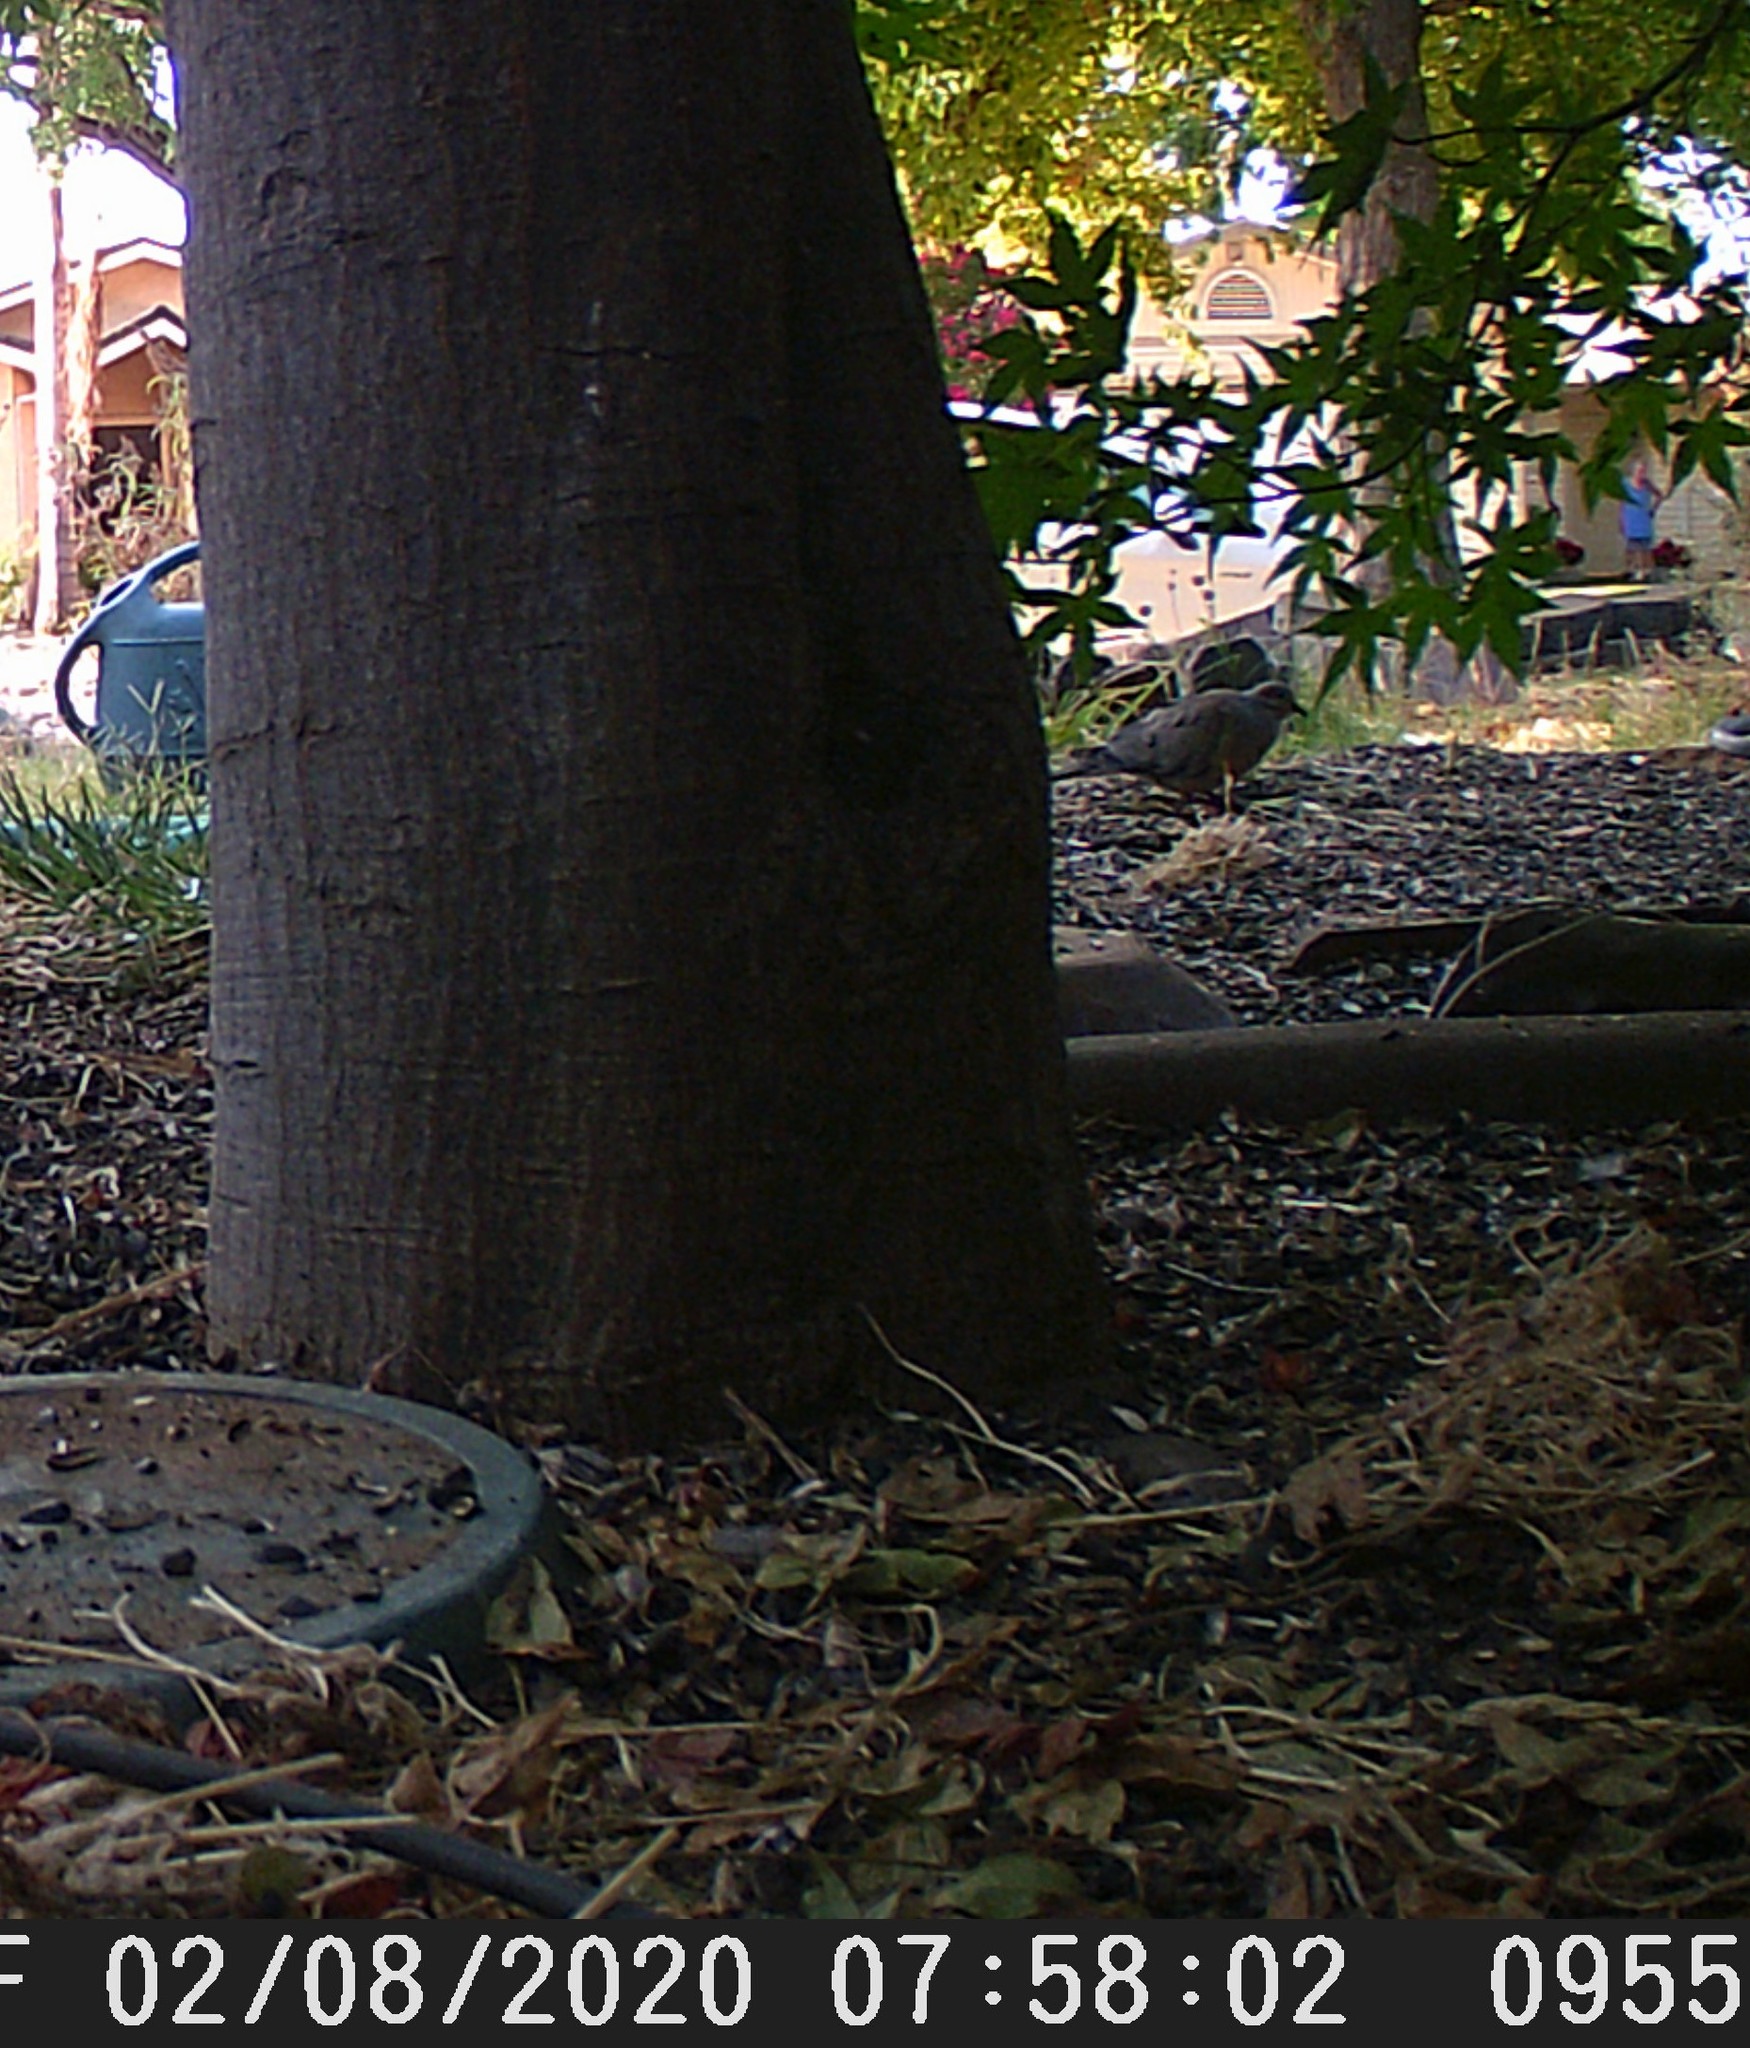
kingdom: Animalia
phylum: Chordata
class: Aves
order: Columbiformes
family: Columbidae
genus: Zenaida
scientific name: Zenaida macroura
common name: Mourning dove
